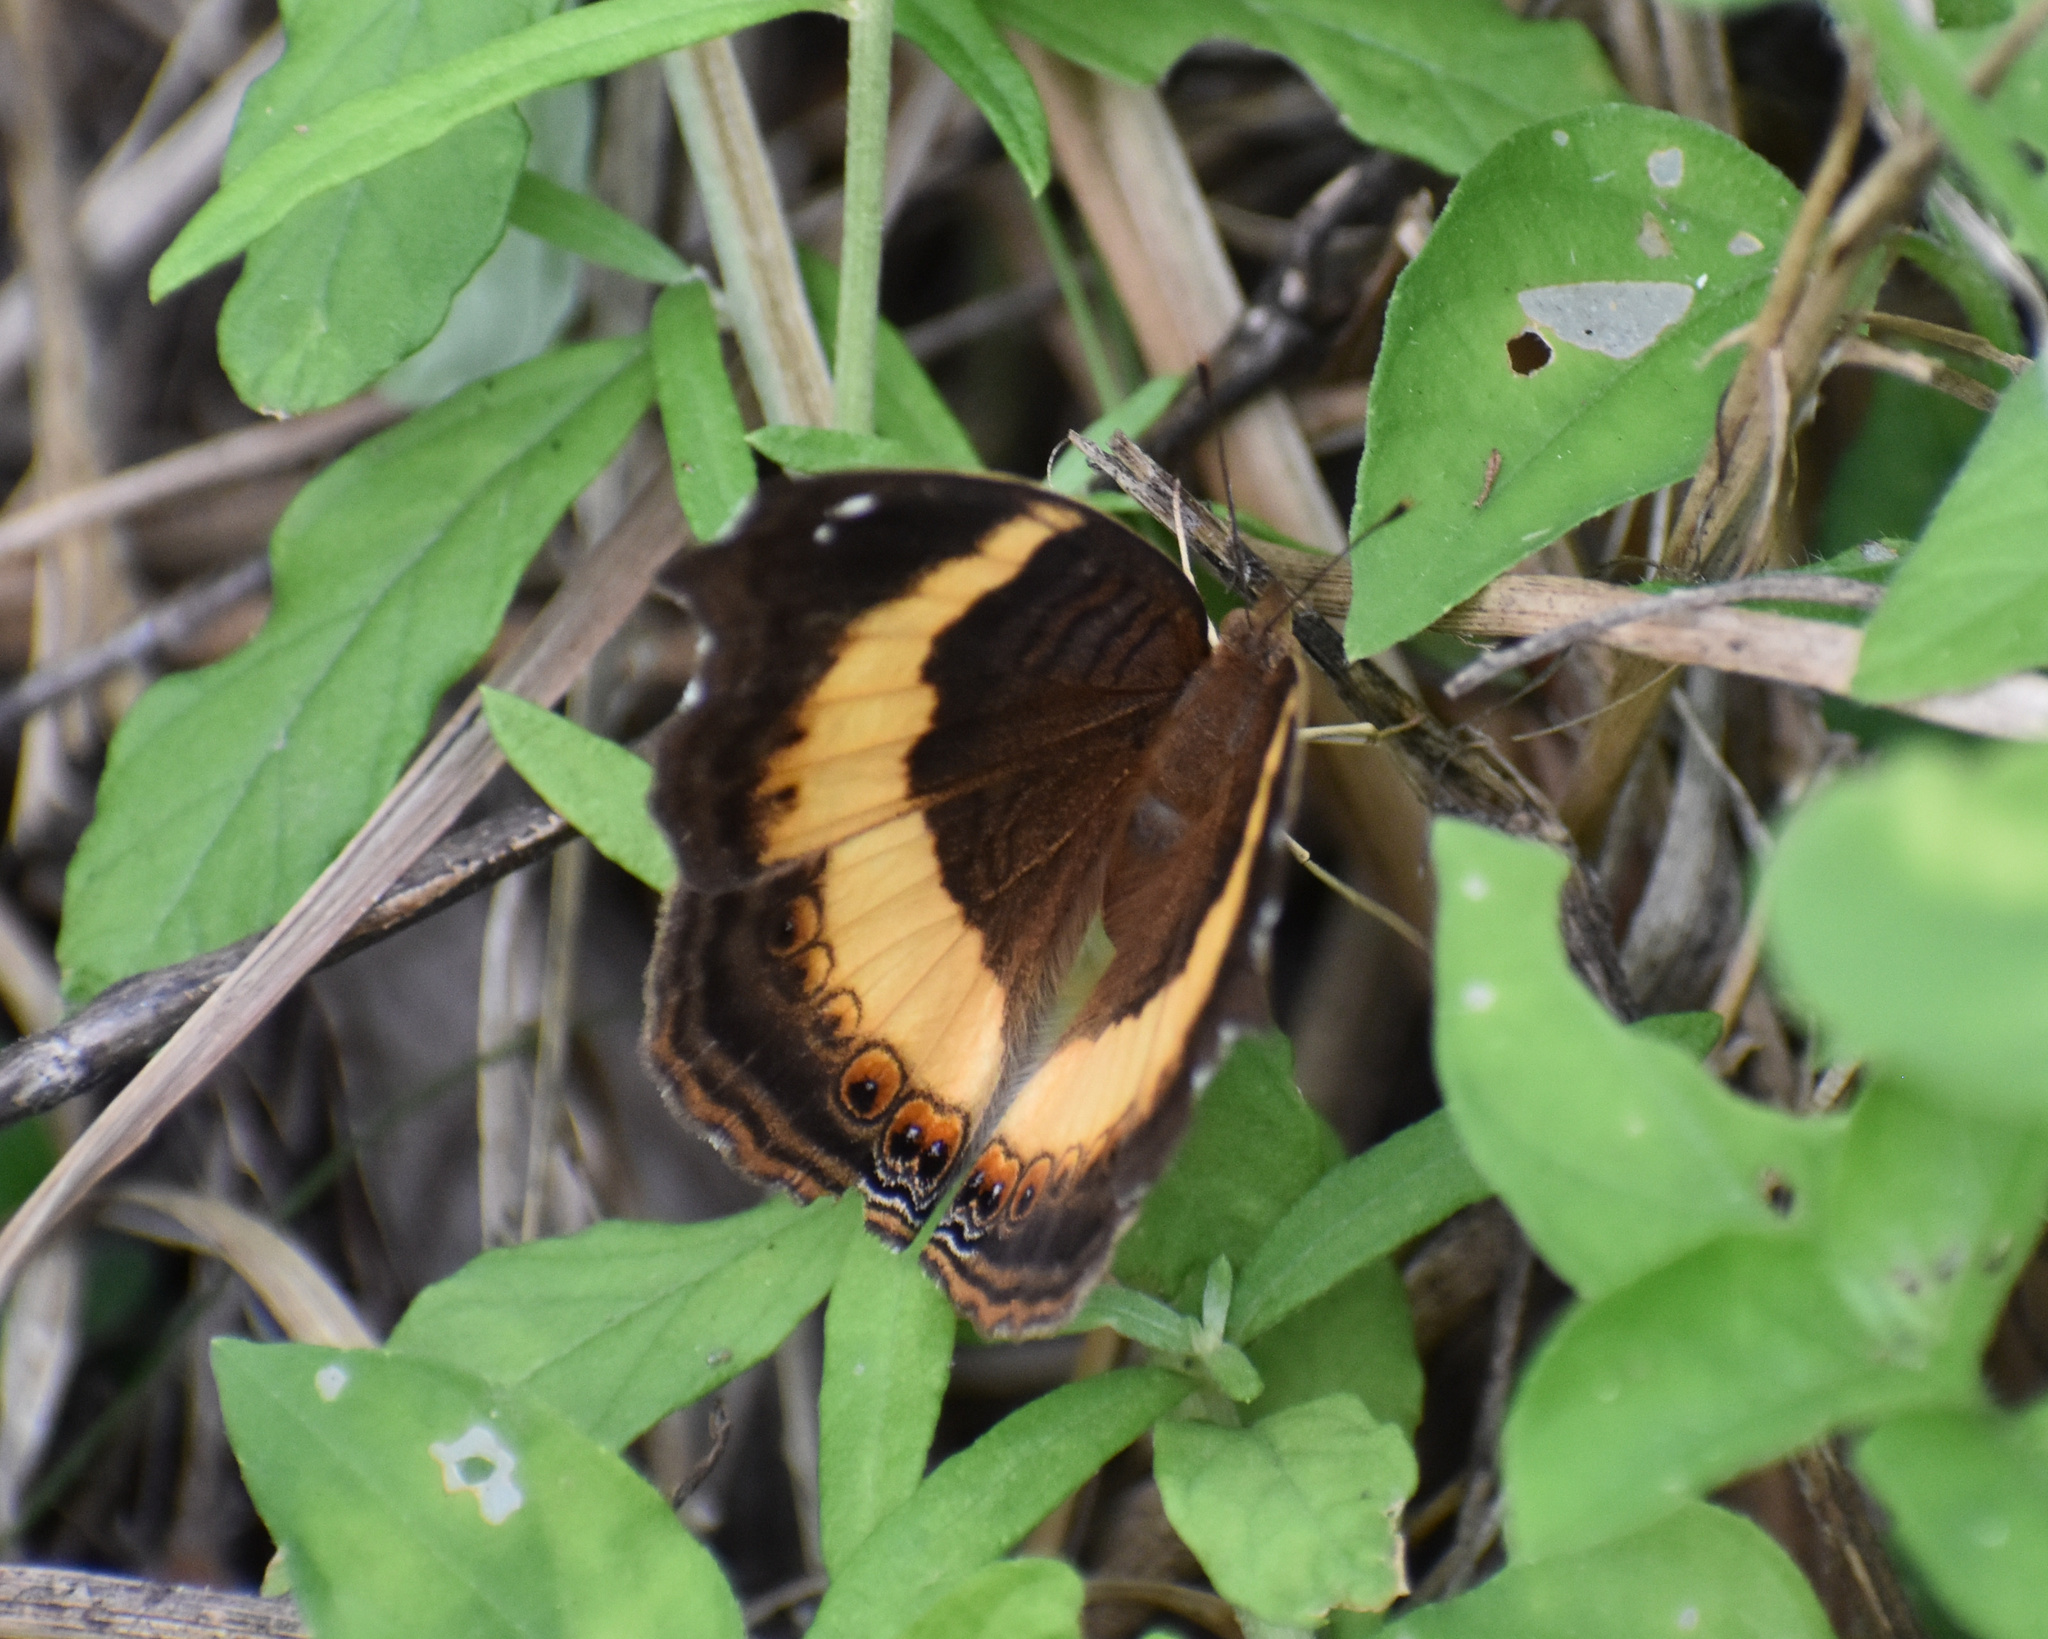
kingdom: Animalia
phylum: Arthropoda
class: Insecta
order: Lepidoptera
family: Nymphalidae
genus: Junonia
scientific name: Junonia terea
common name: Soldier pansy
